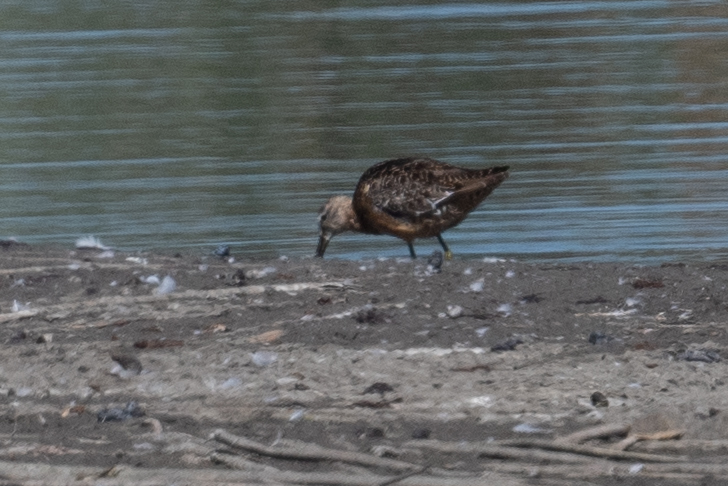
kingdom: Animalia
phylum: Chordata
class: Aves
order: Charadriiformes
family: Scolopacidae
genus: Limnodromus
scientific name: Limnodromus scolopaceus
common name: Long-billed dowitcher
